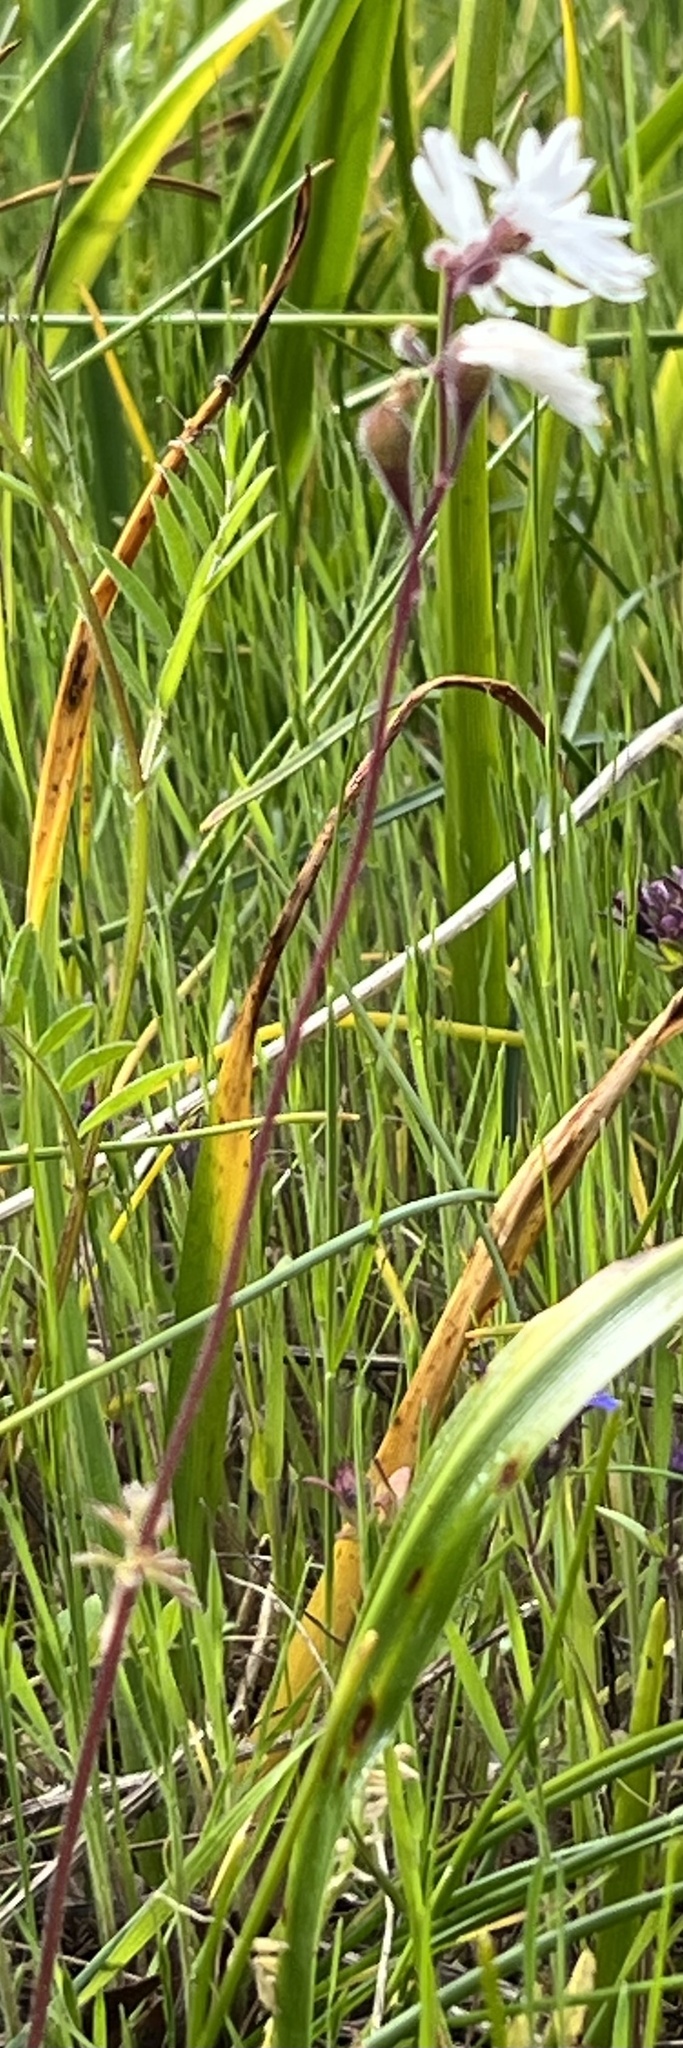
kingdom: Plantae
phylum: Tracheophyta
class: Magnoliopsida
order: Saxifragales
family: Saxifragaceae
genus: Lithophragma
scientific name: Lithophragma parviflorum
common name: Small-flowered fringe-cup
